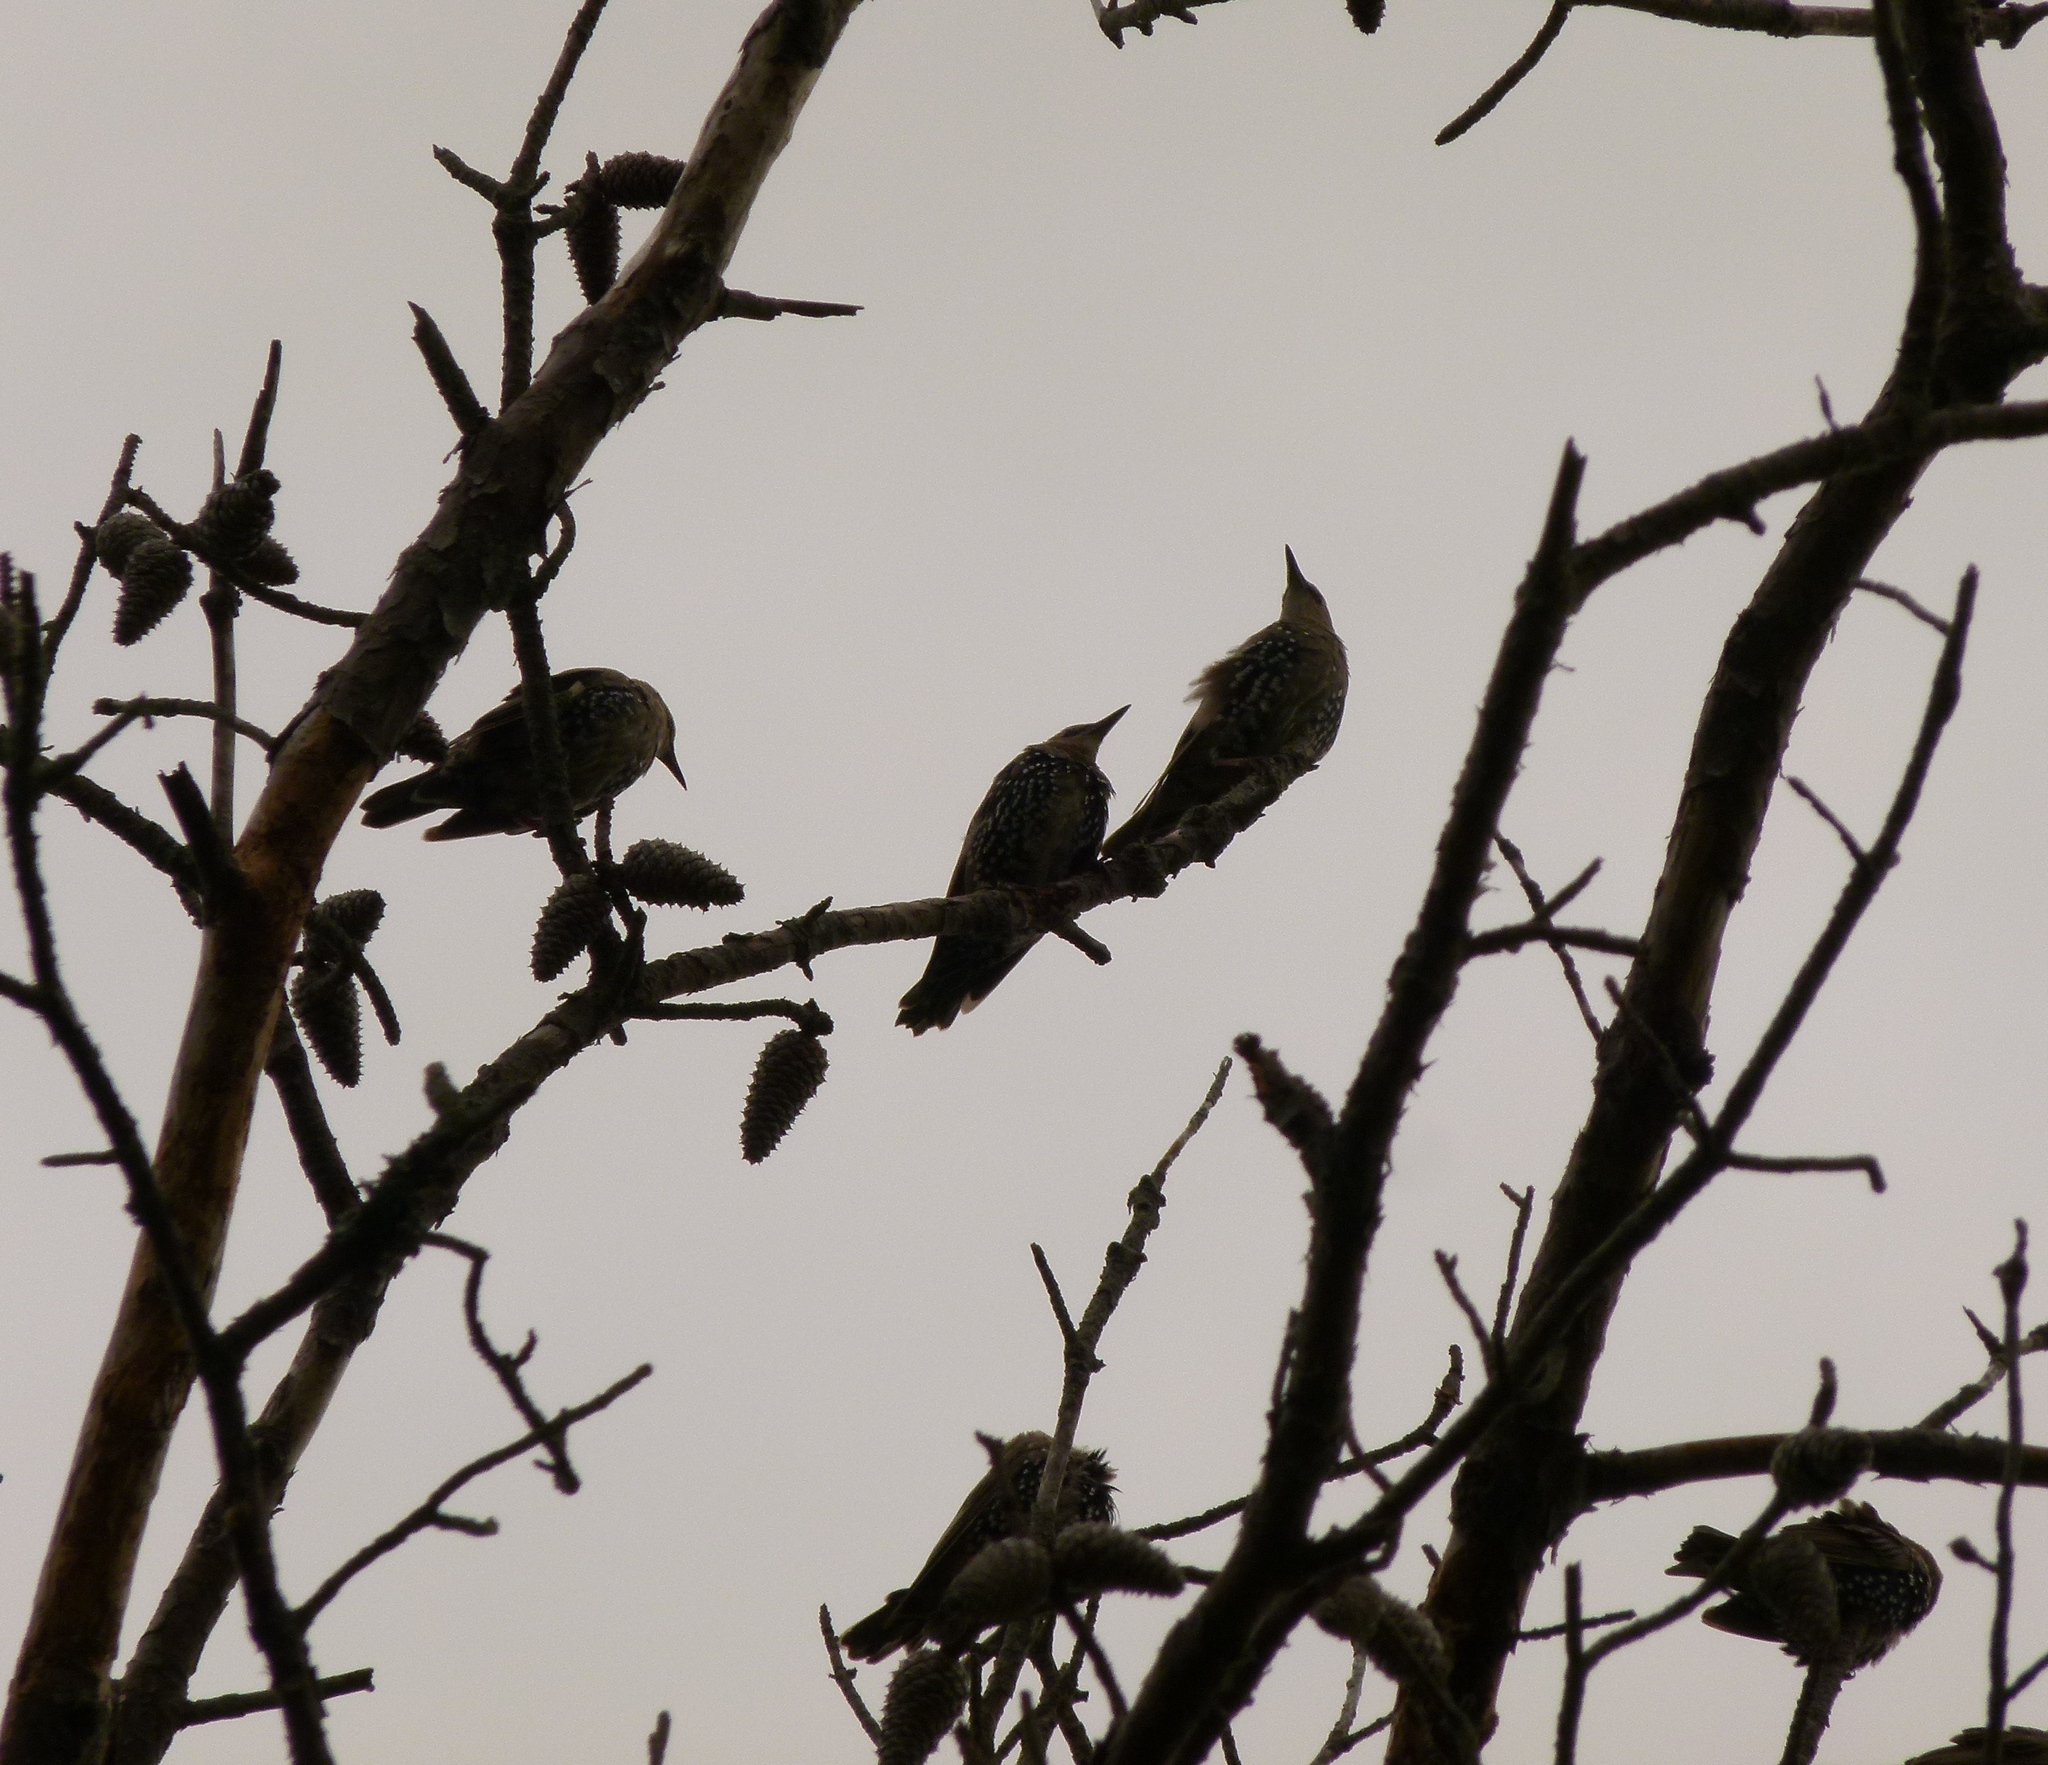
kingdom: Animalia
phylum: Chordata
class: Aves
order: Passeriformes
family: Sturnidae
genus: Sturnus
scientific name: Sturnus vulgaris
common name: Common starling
